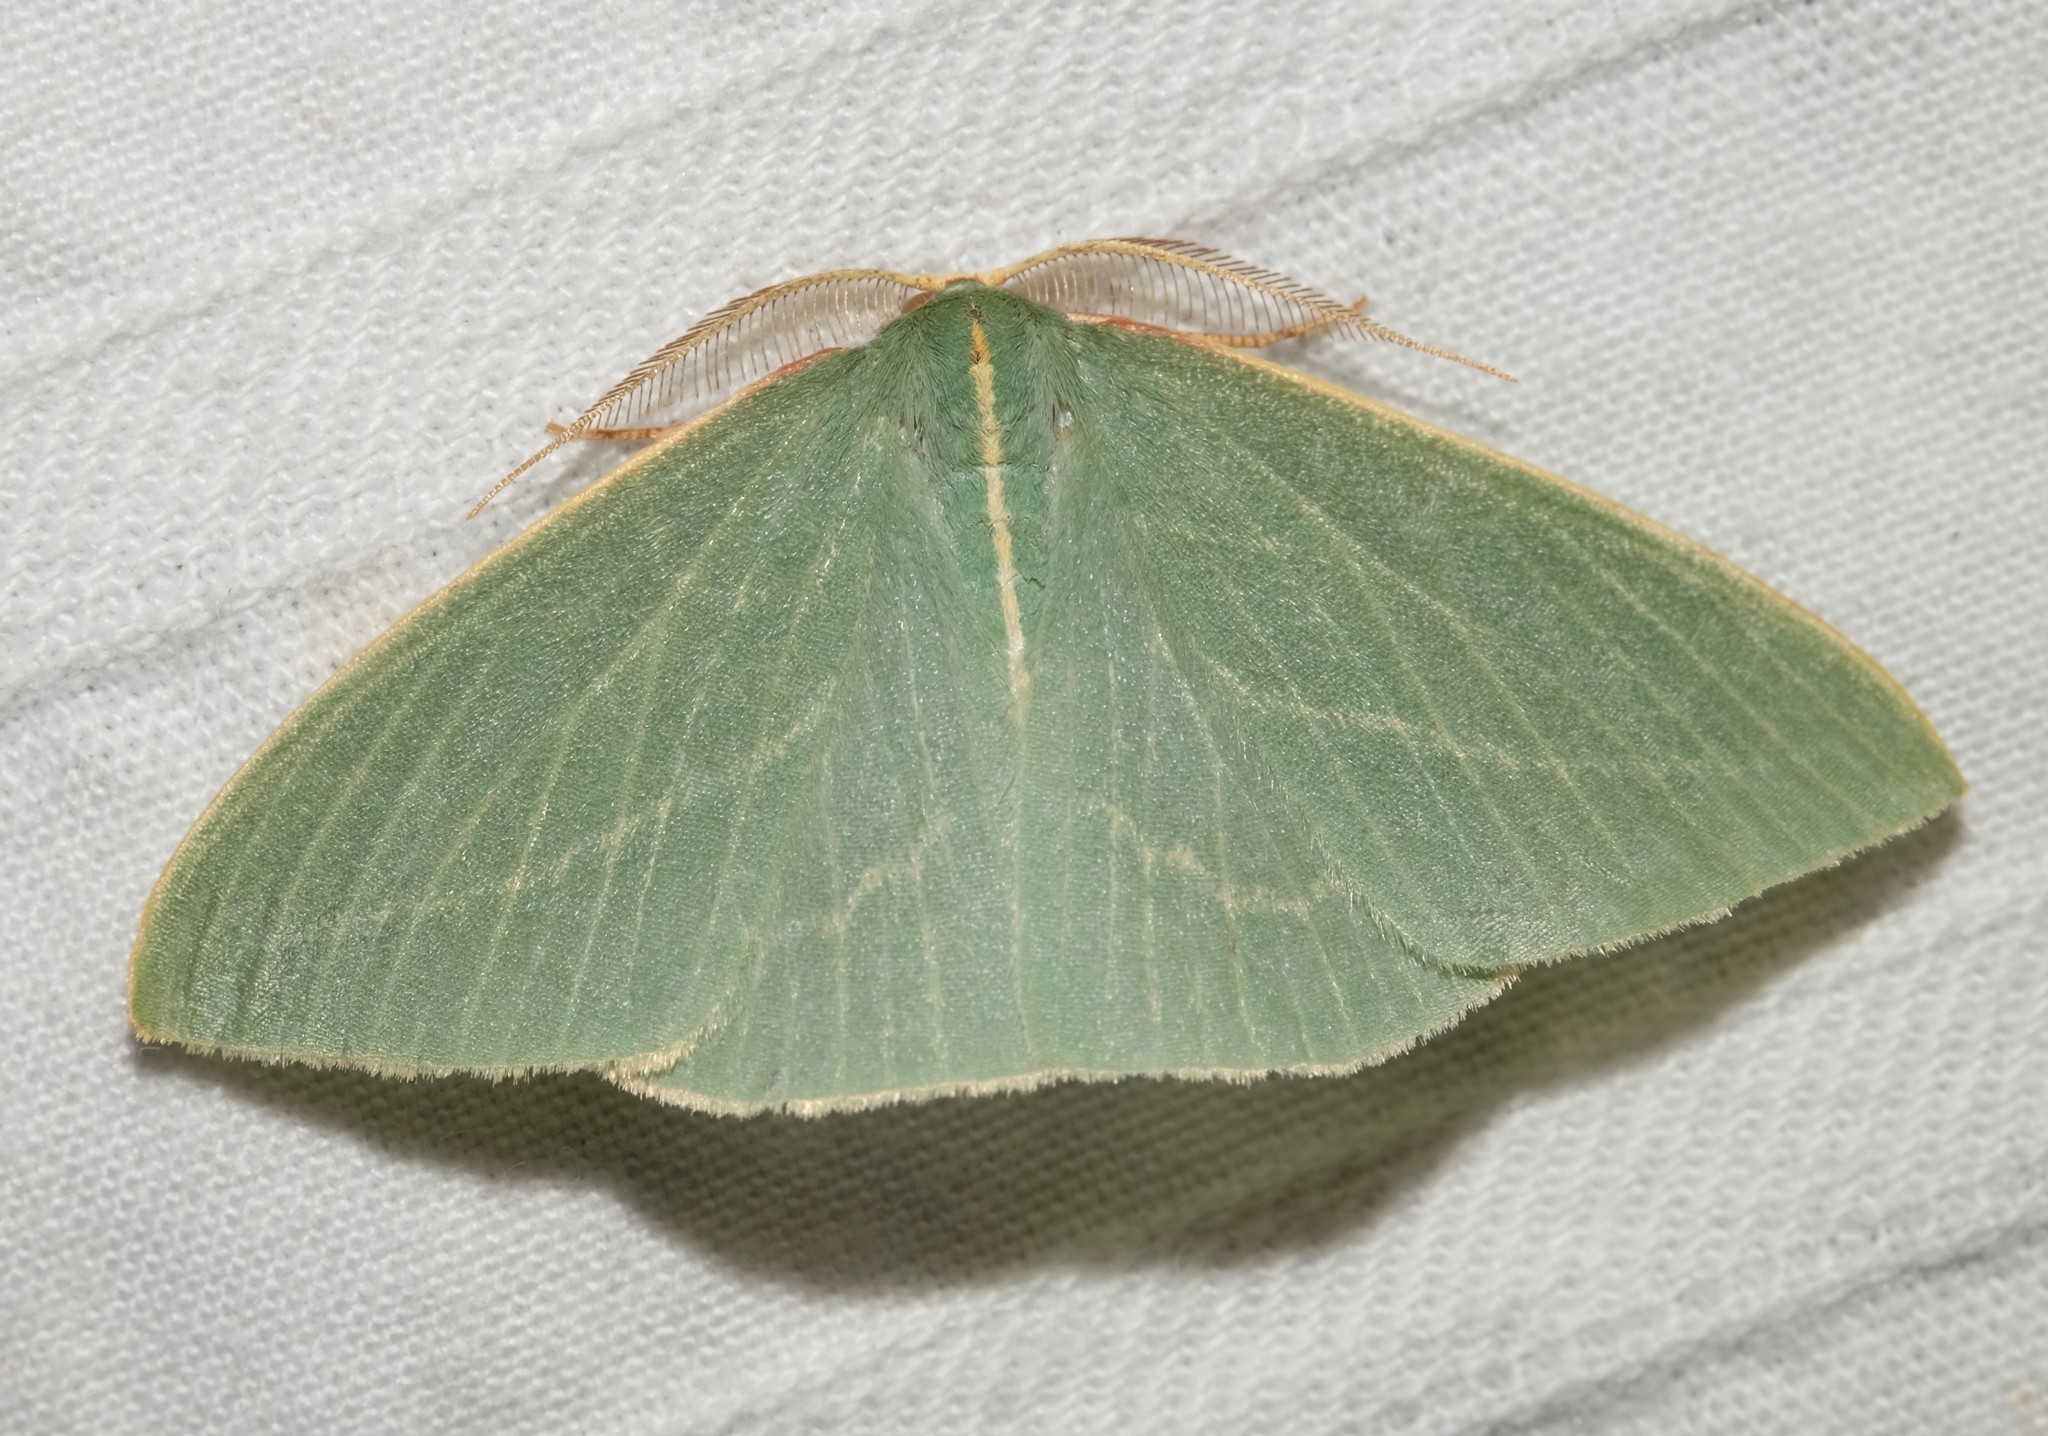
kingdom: Animalia
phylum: Arthropoda
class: Insecta
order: Lepidoptera
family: Geometridae
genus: Chlorocoma
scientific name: Chlorocoma carenaria
